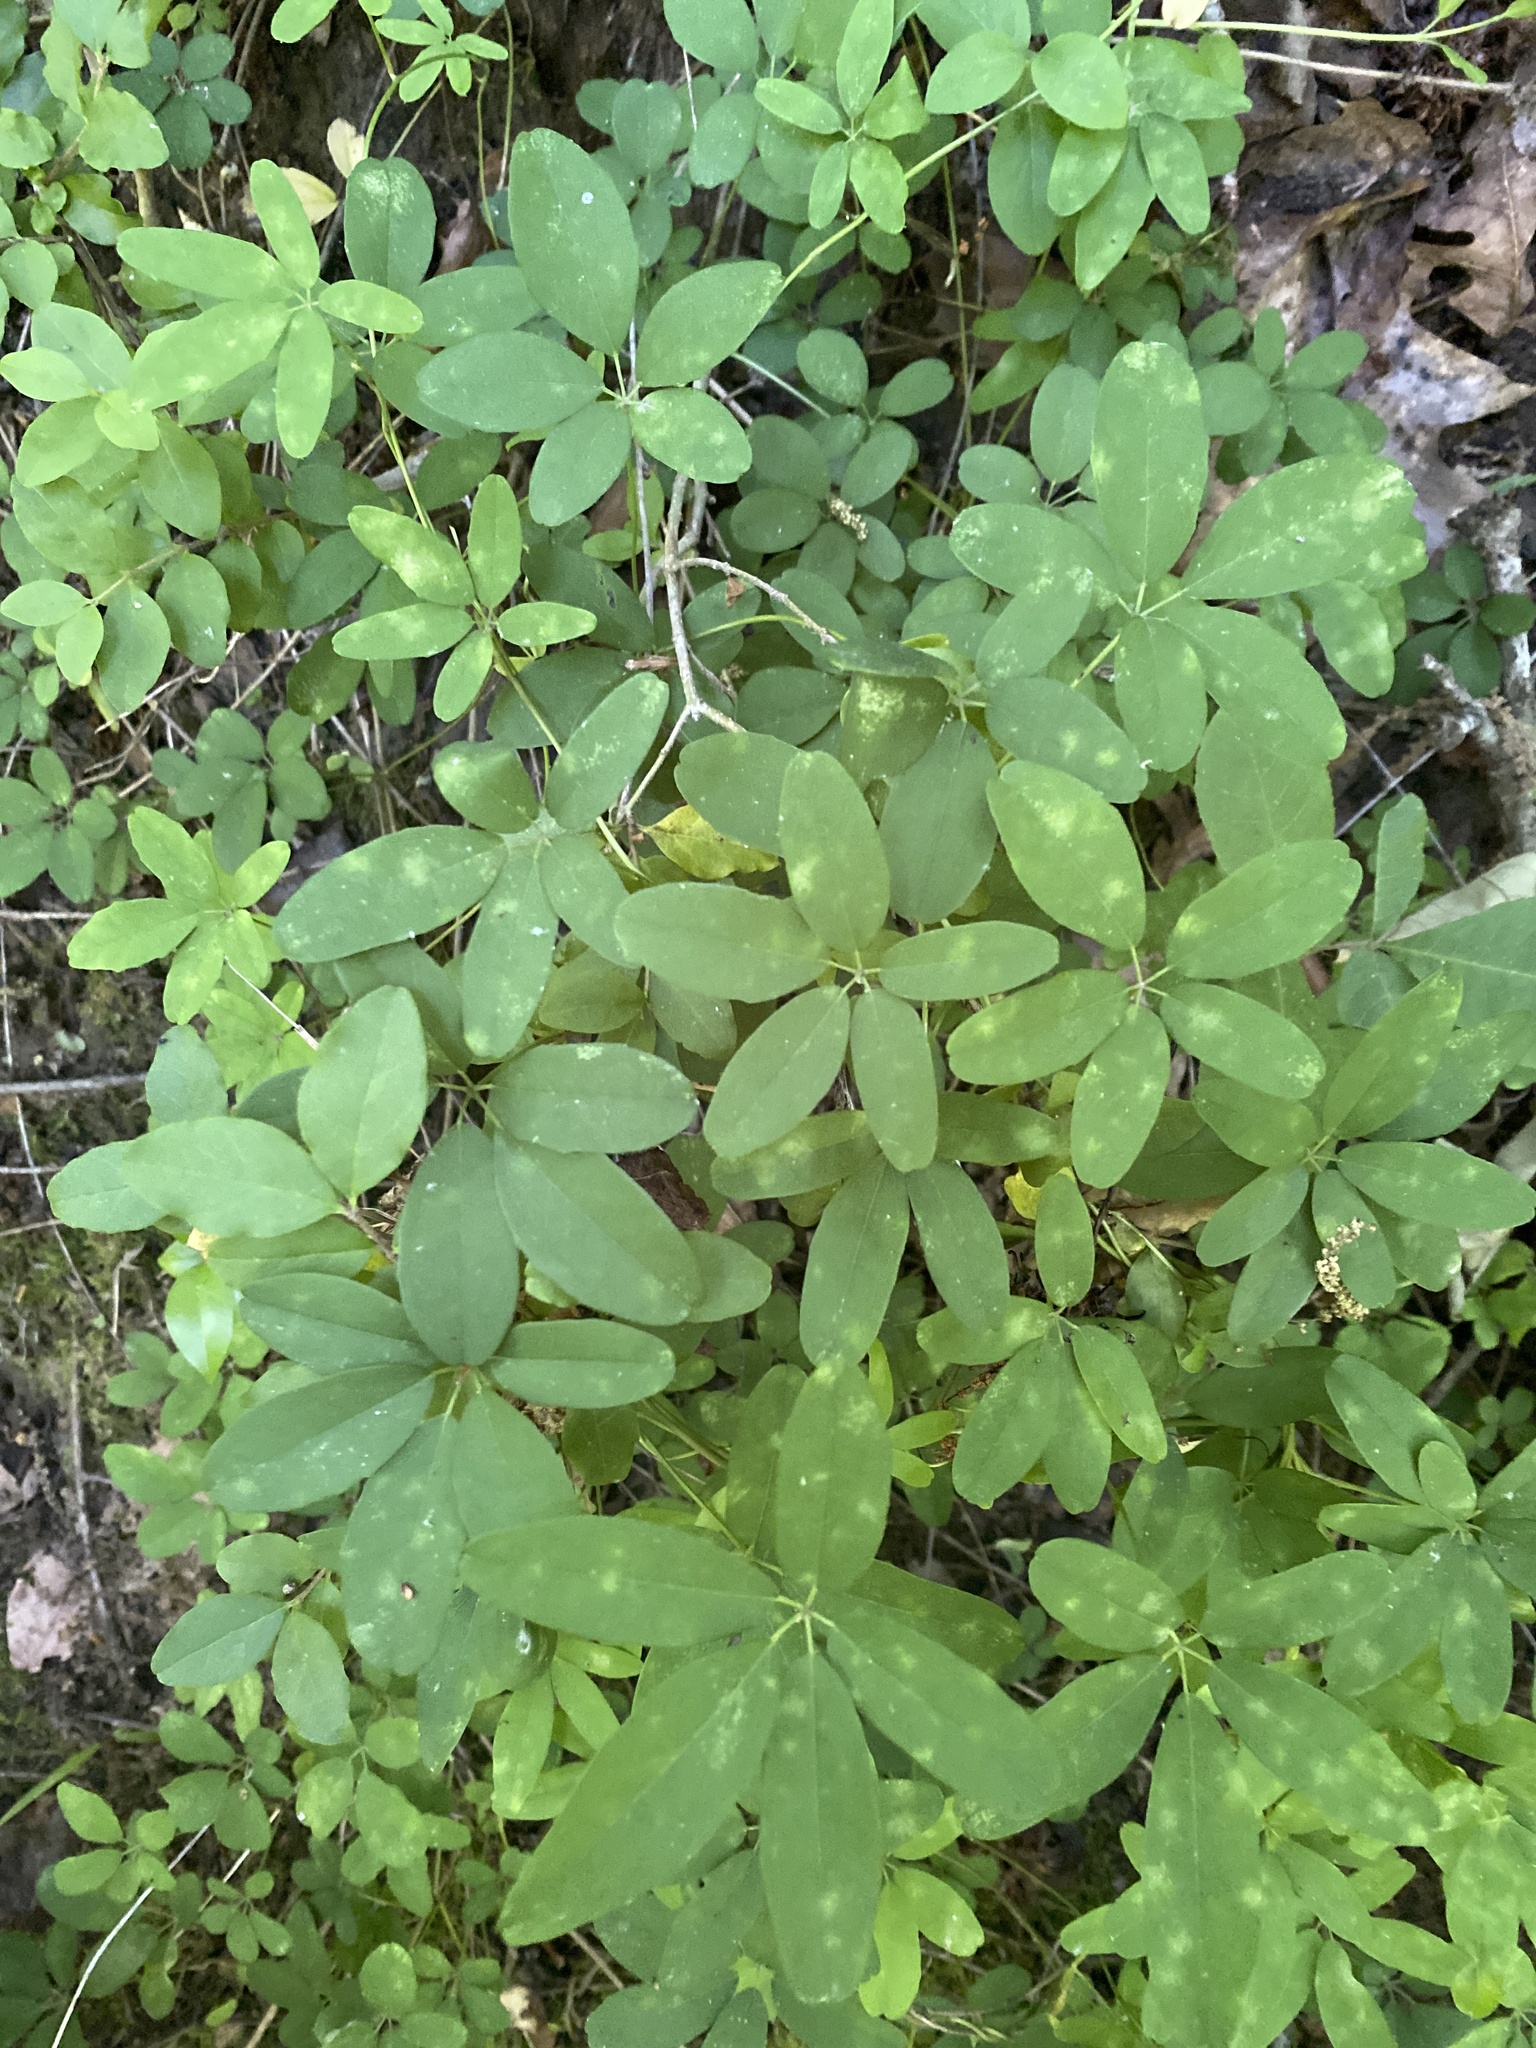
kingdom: Plantae
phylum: Tracheophyta
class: Magnoliopsida
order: Ranunculales
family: Lardizabalaceae
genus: Akebia
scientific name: Akebia quinata
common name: Five-leaf akebia
